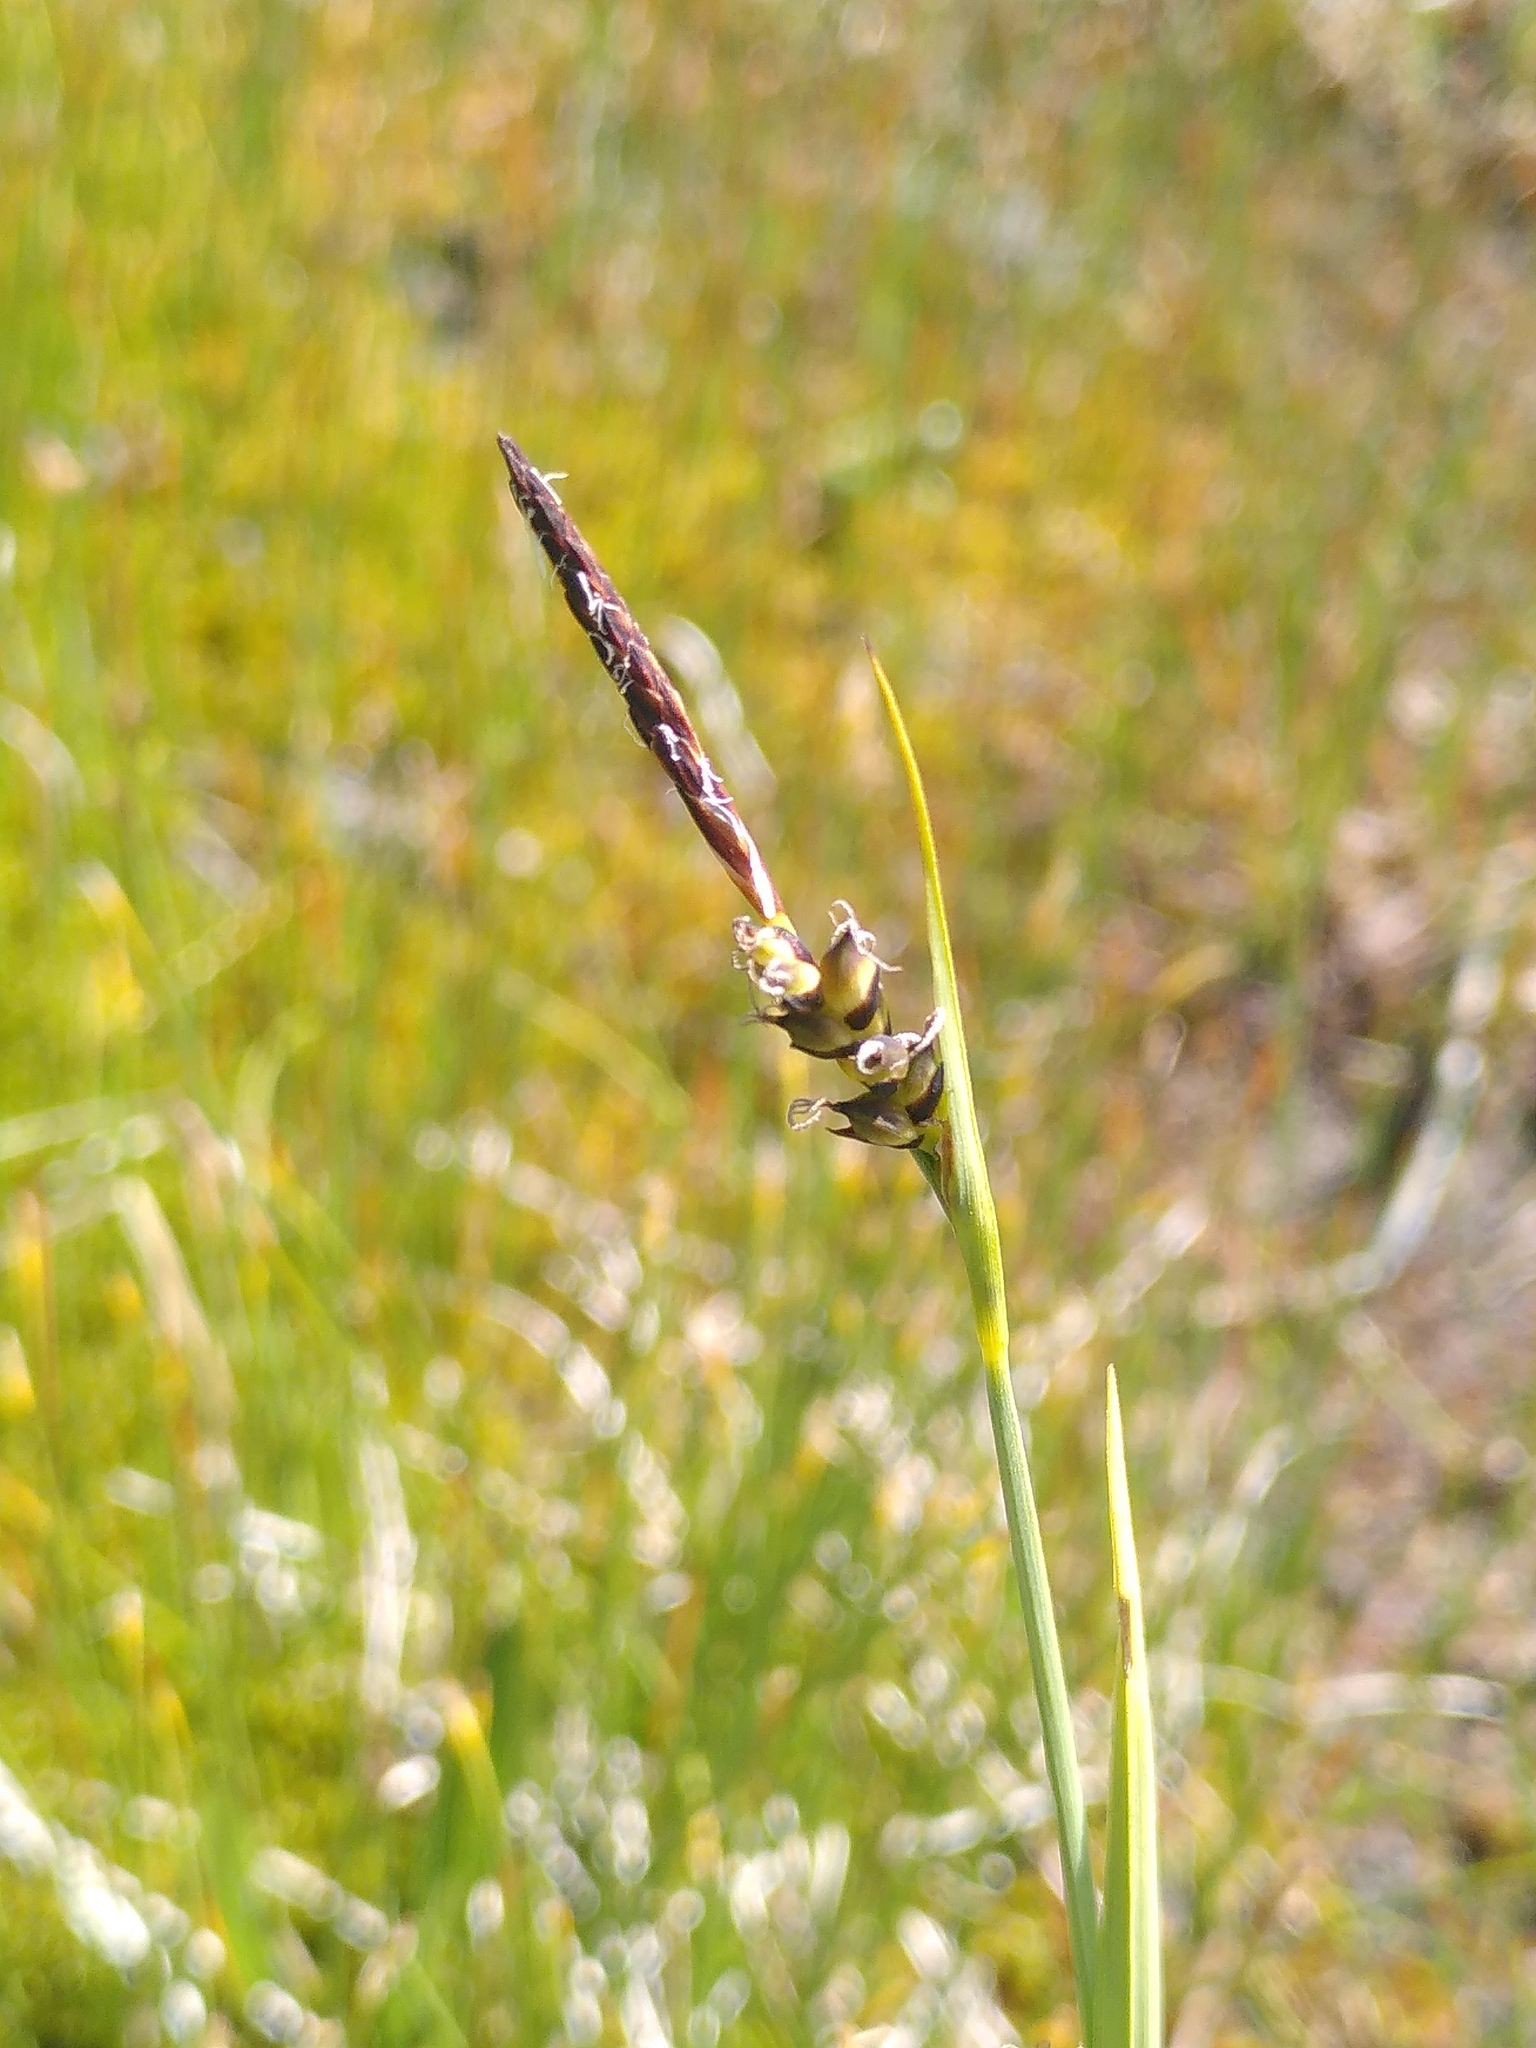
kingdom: Plantae
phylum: Tracheophyta
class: Liliopsida
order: Poales
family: Cyperaceae
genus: Carex
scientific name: Carex panicea
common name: Carnation sedge
